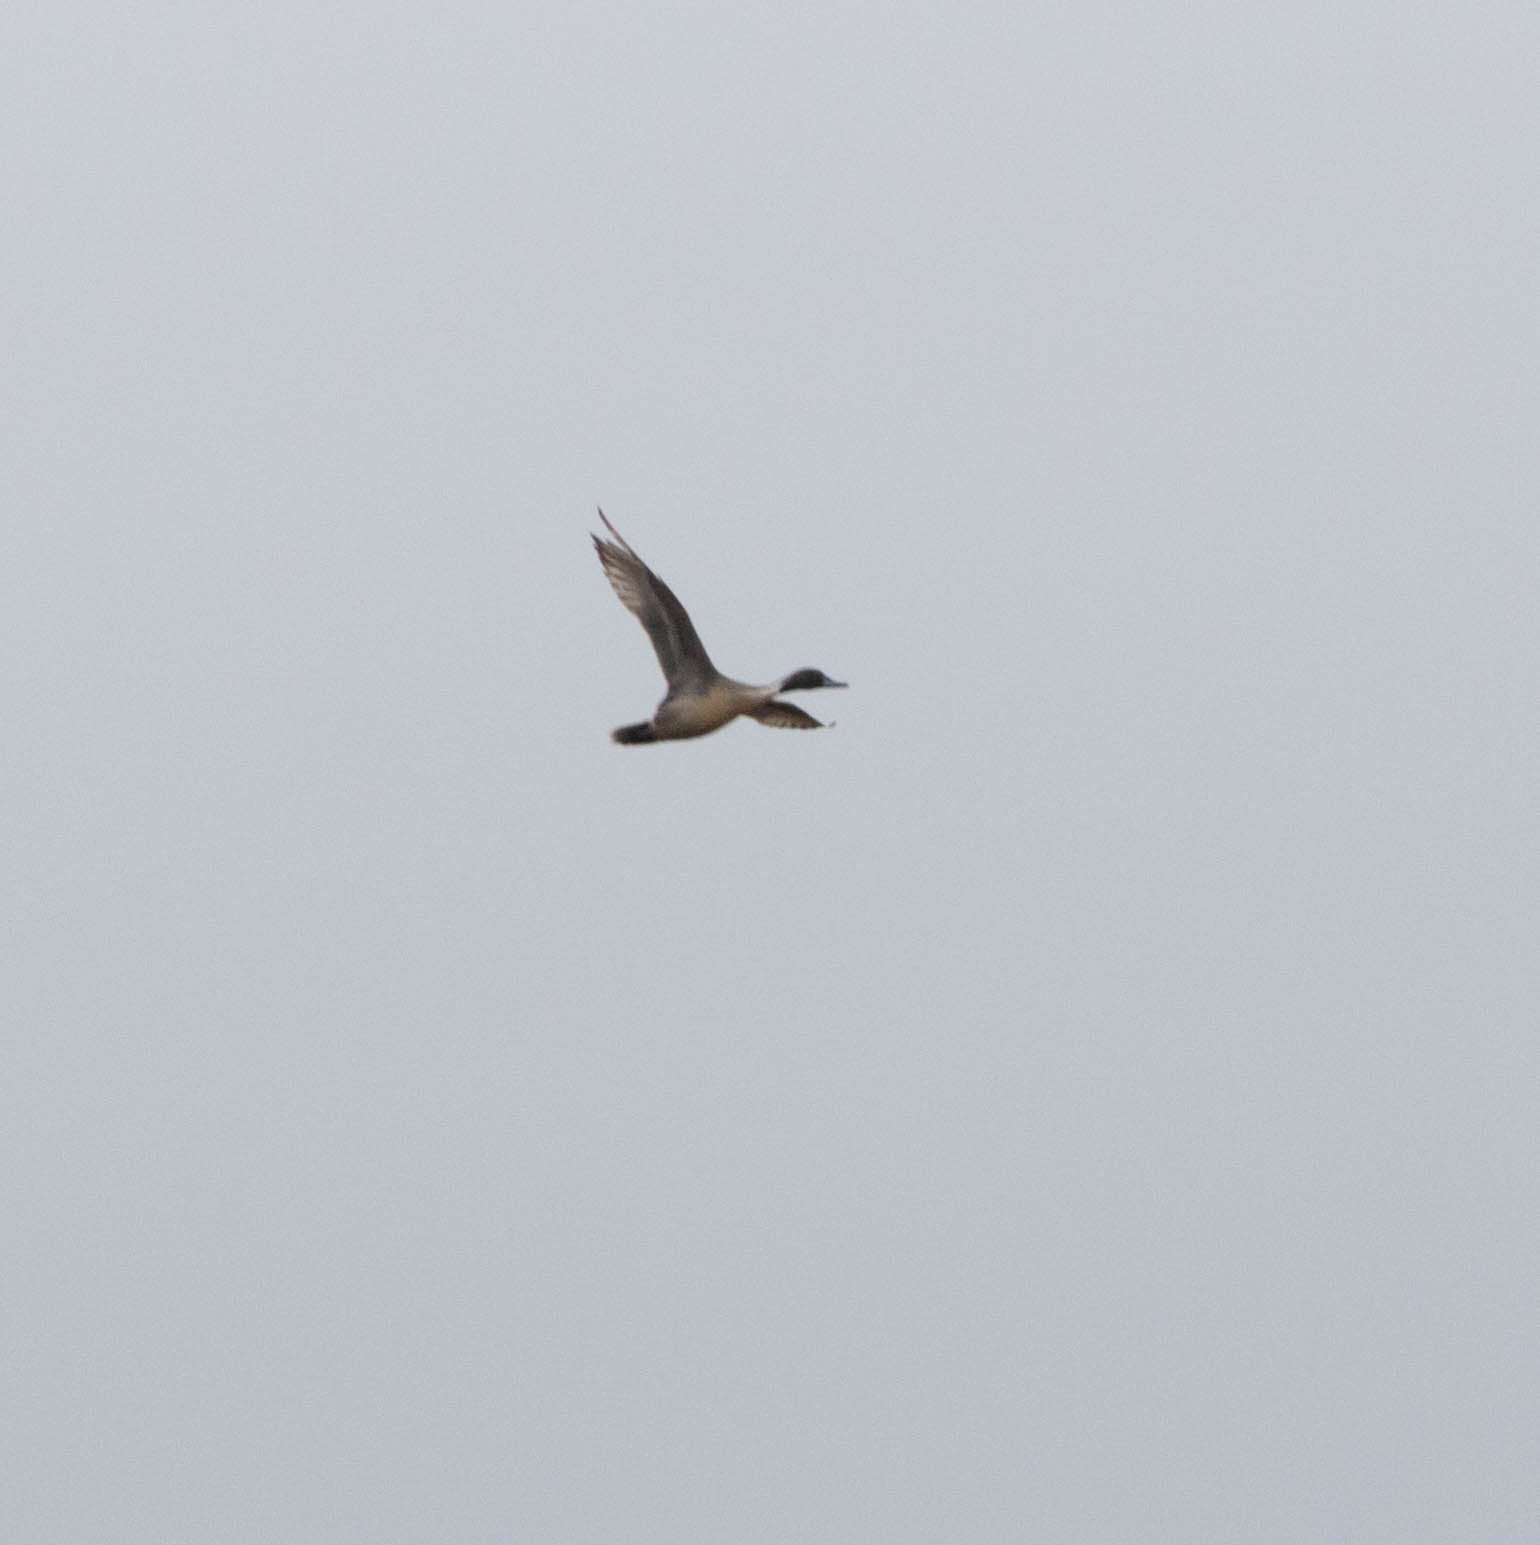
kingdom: Animalia
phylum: Chordata
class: Aves
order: Anseriformes
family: Anatidae
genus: Anas
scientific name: Anas acuta
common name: Northern pintail
